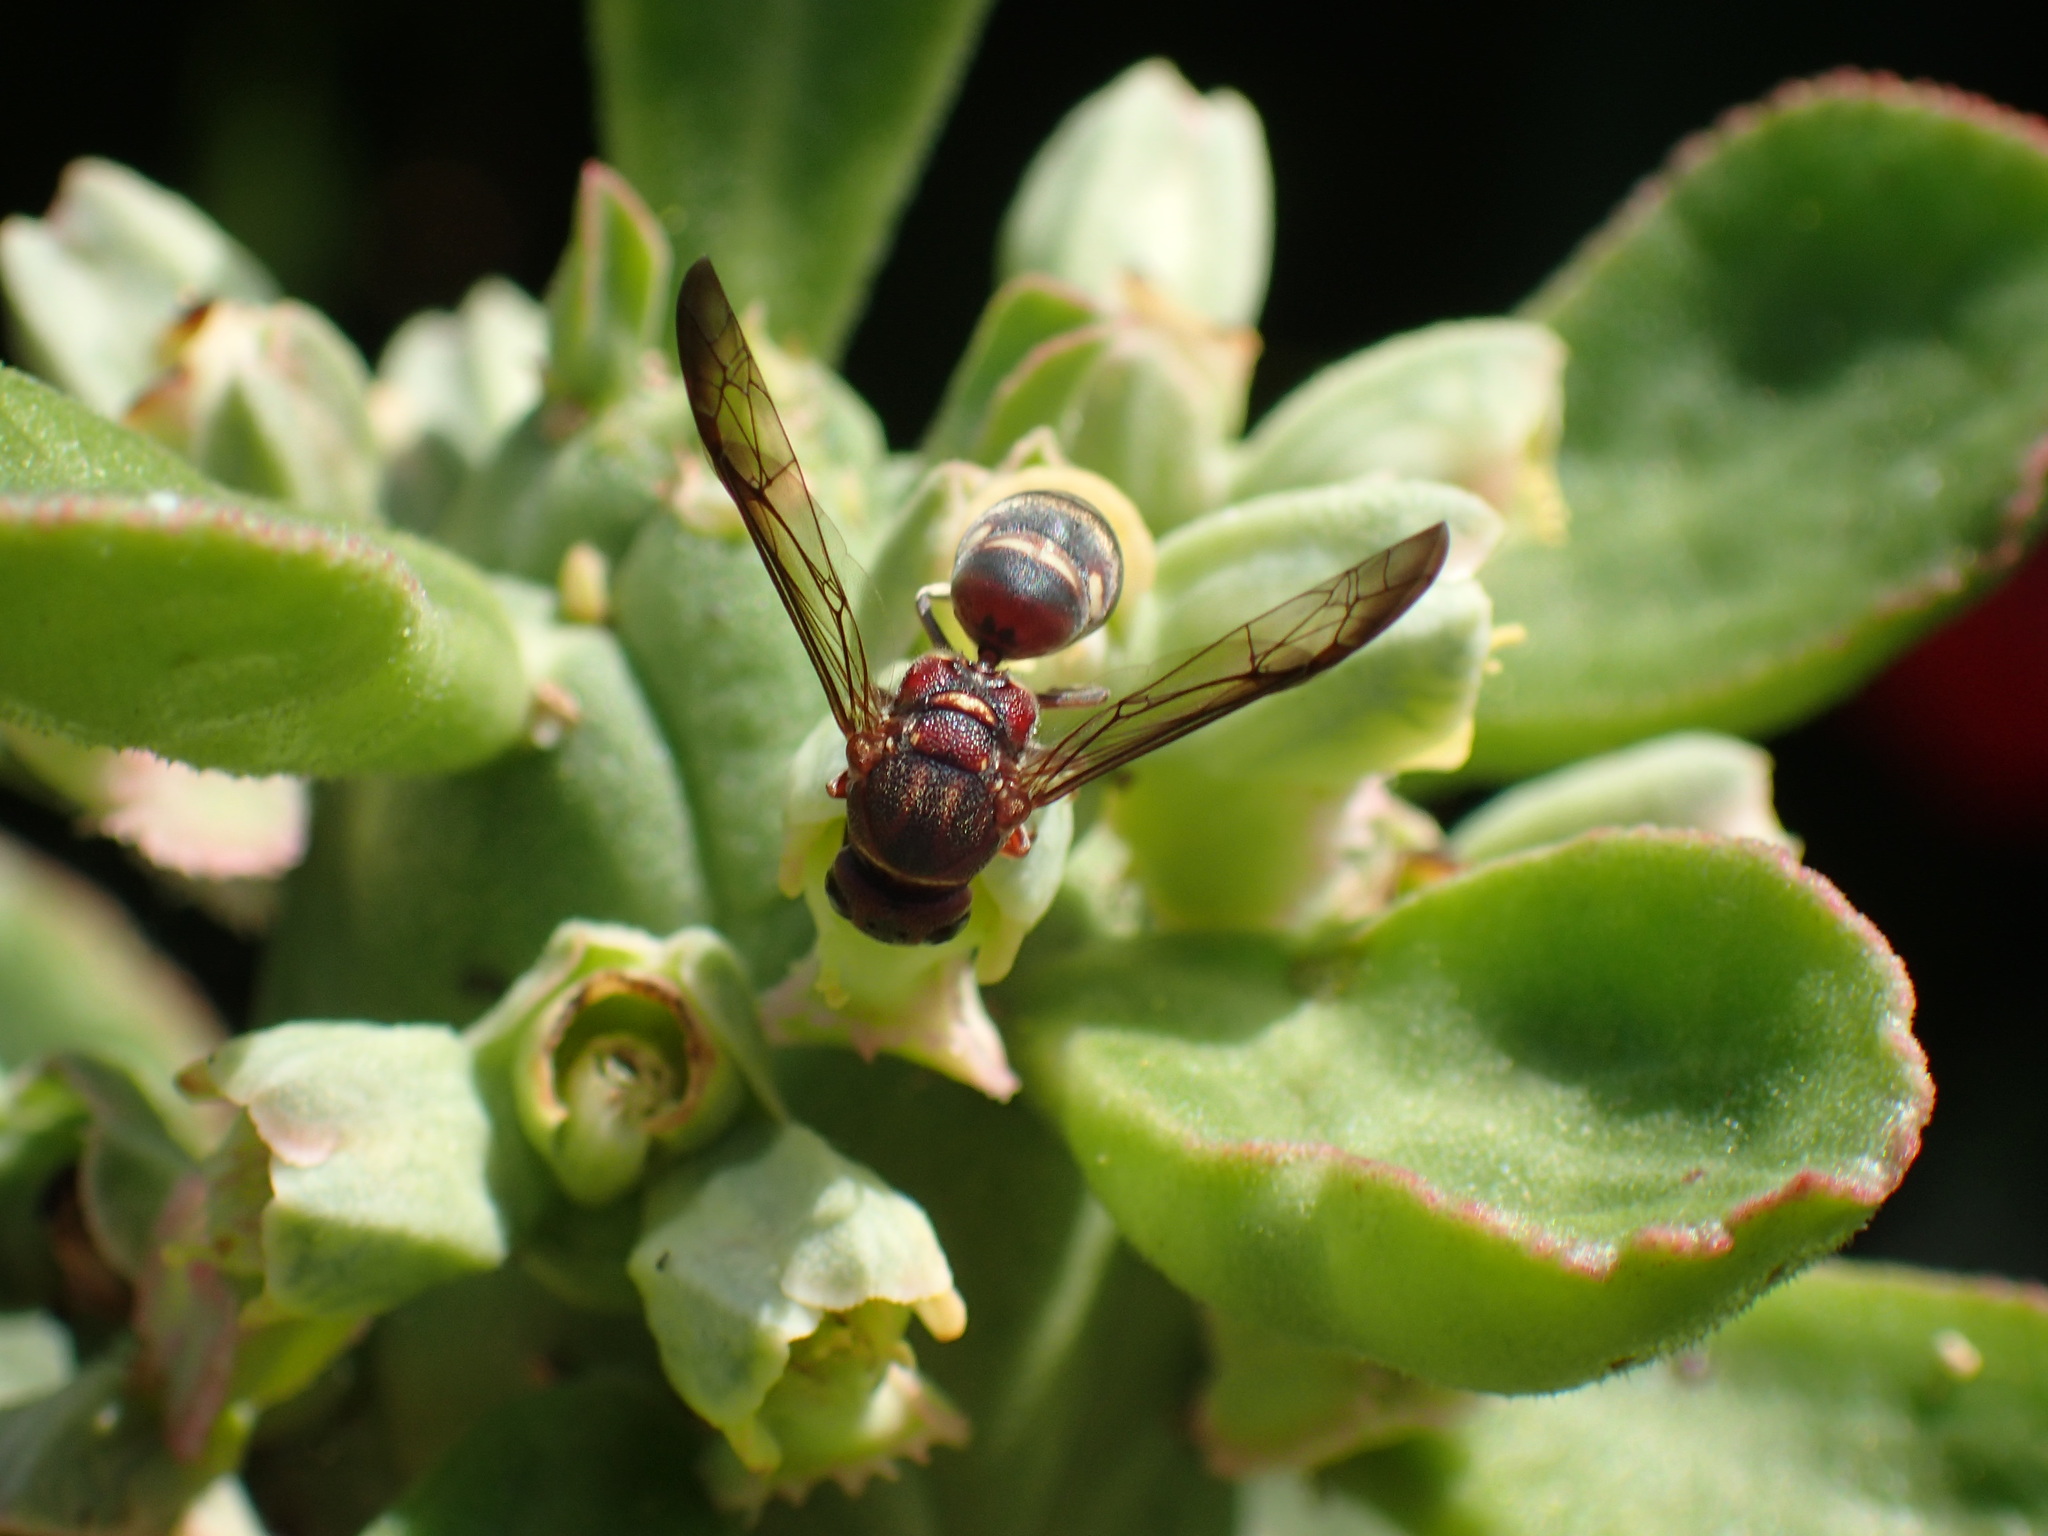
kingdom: Animalia
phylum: Arthropoda
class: Insecta
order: Hymenoptera
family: Eumenidae
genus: Antodynerus
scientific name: Antodynerus
